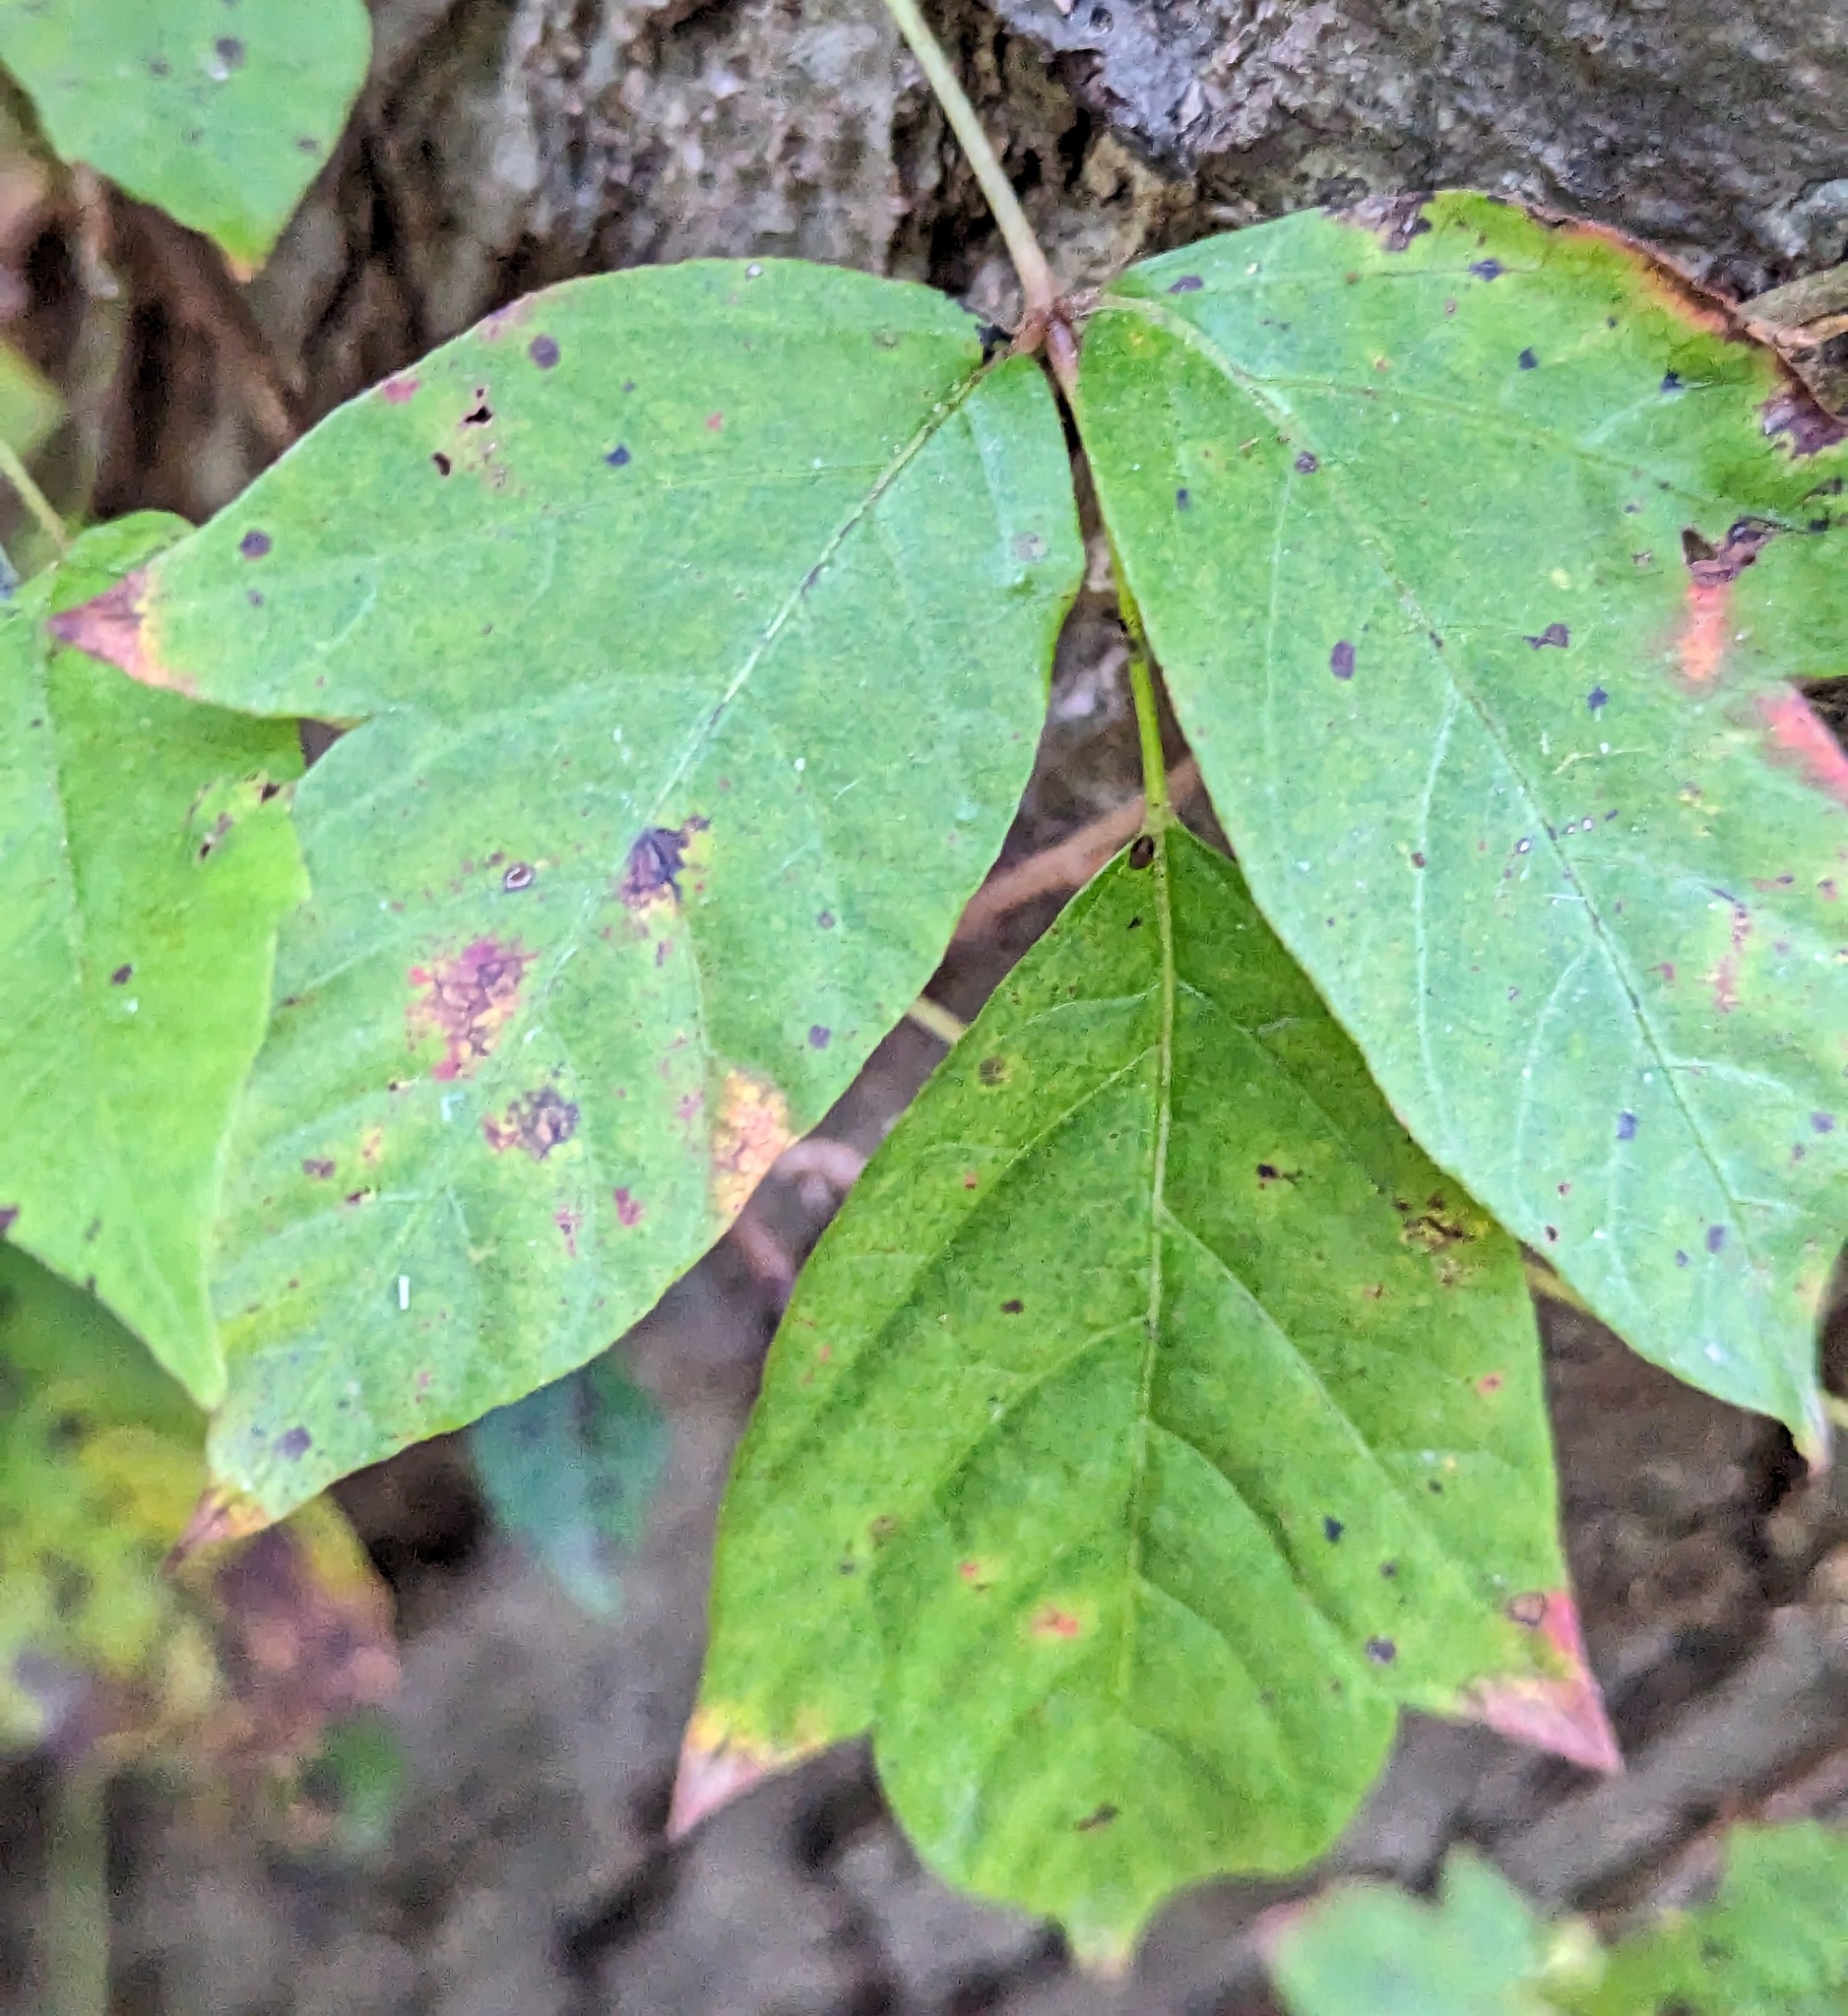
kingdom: Plantae
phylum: Tracheophyta
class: Magnoliopsida
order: Sapindales
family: Anacardiaceae
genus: Toxicodendron
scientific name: Toxicodendron radicans
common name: Poison ivy
